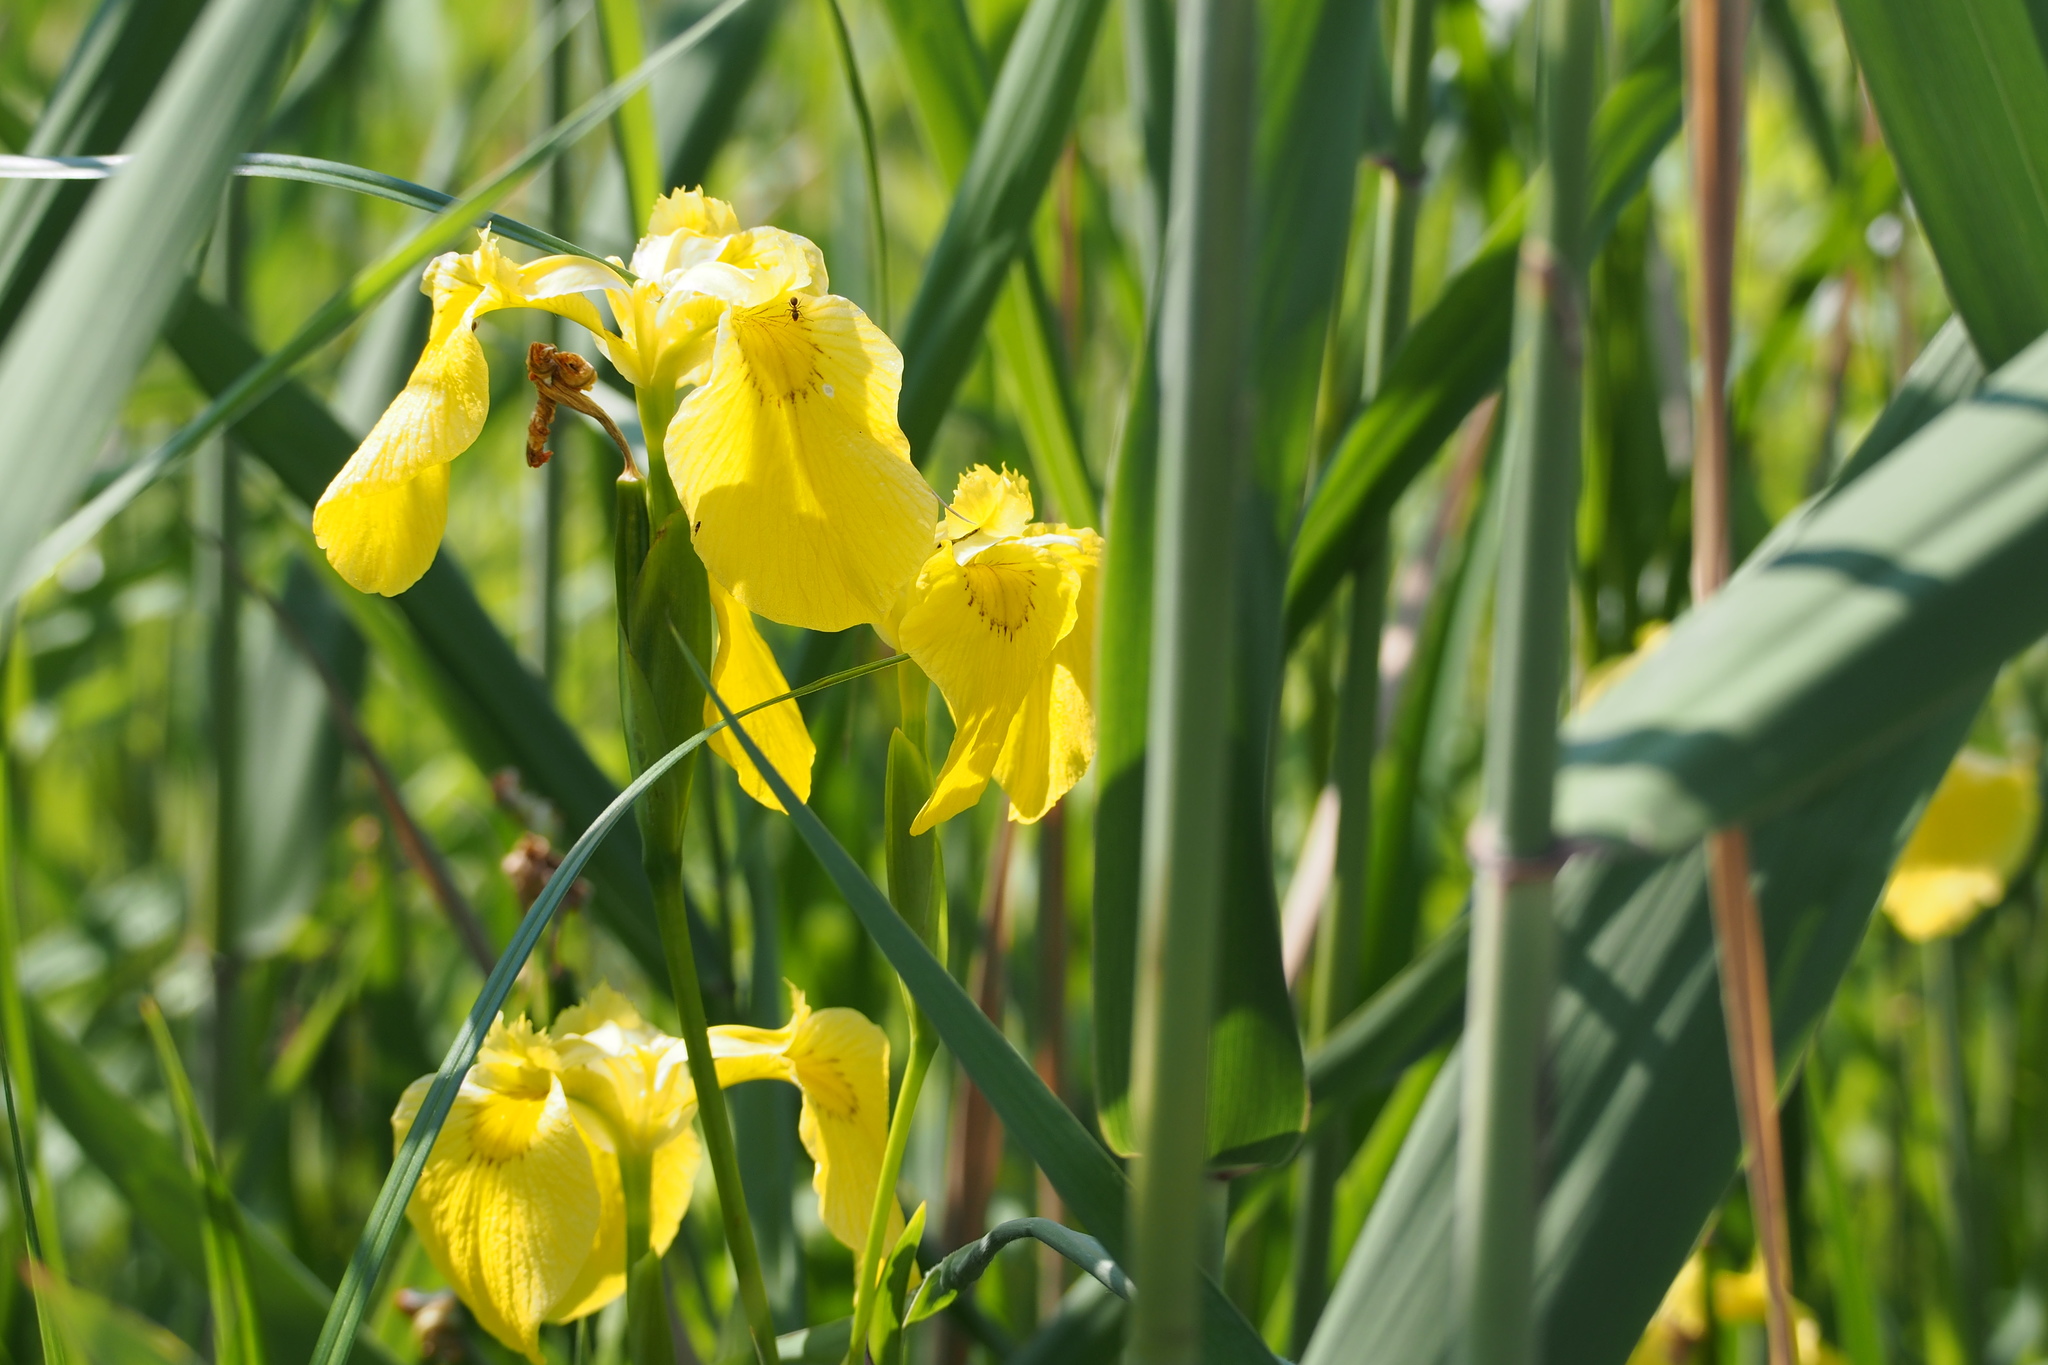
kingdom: Plantae
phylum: Tracheophyta
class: Liliopsida
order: Asparagales
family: Iridaceae
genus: Iris
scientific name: Iris pseudacorus
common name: Yellow flag
